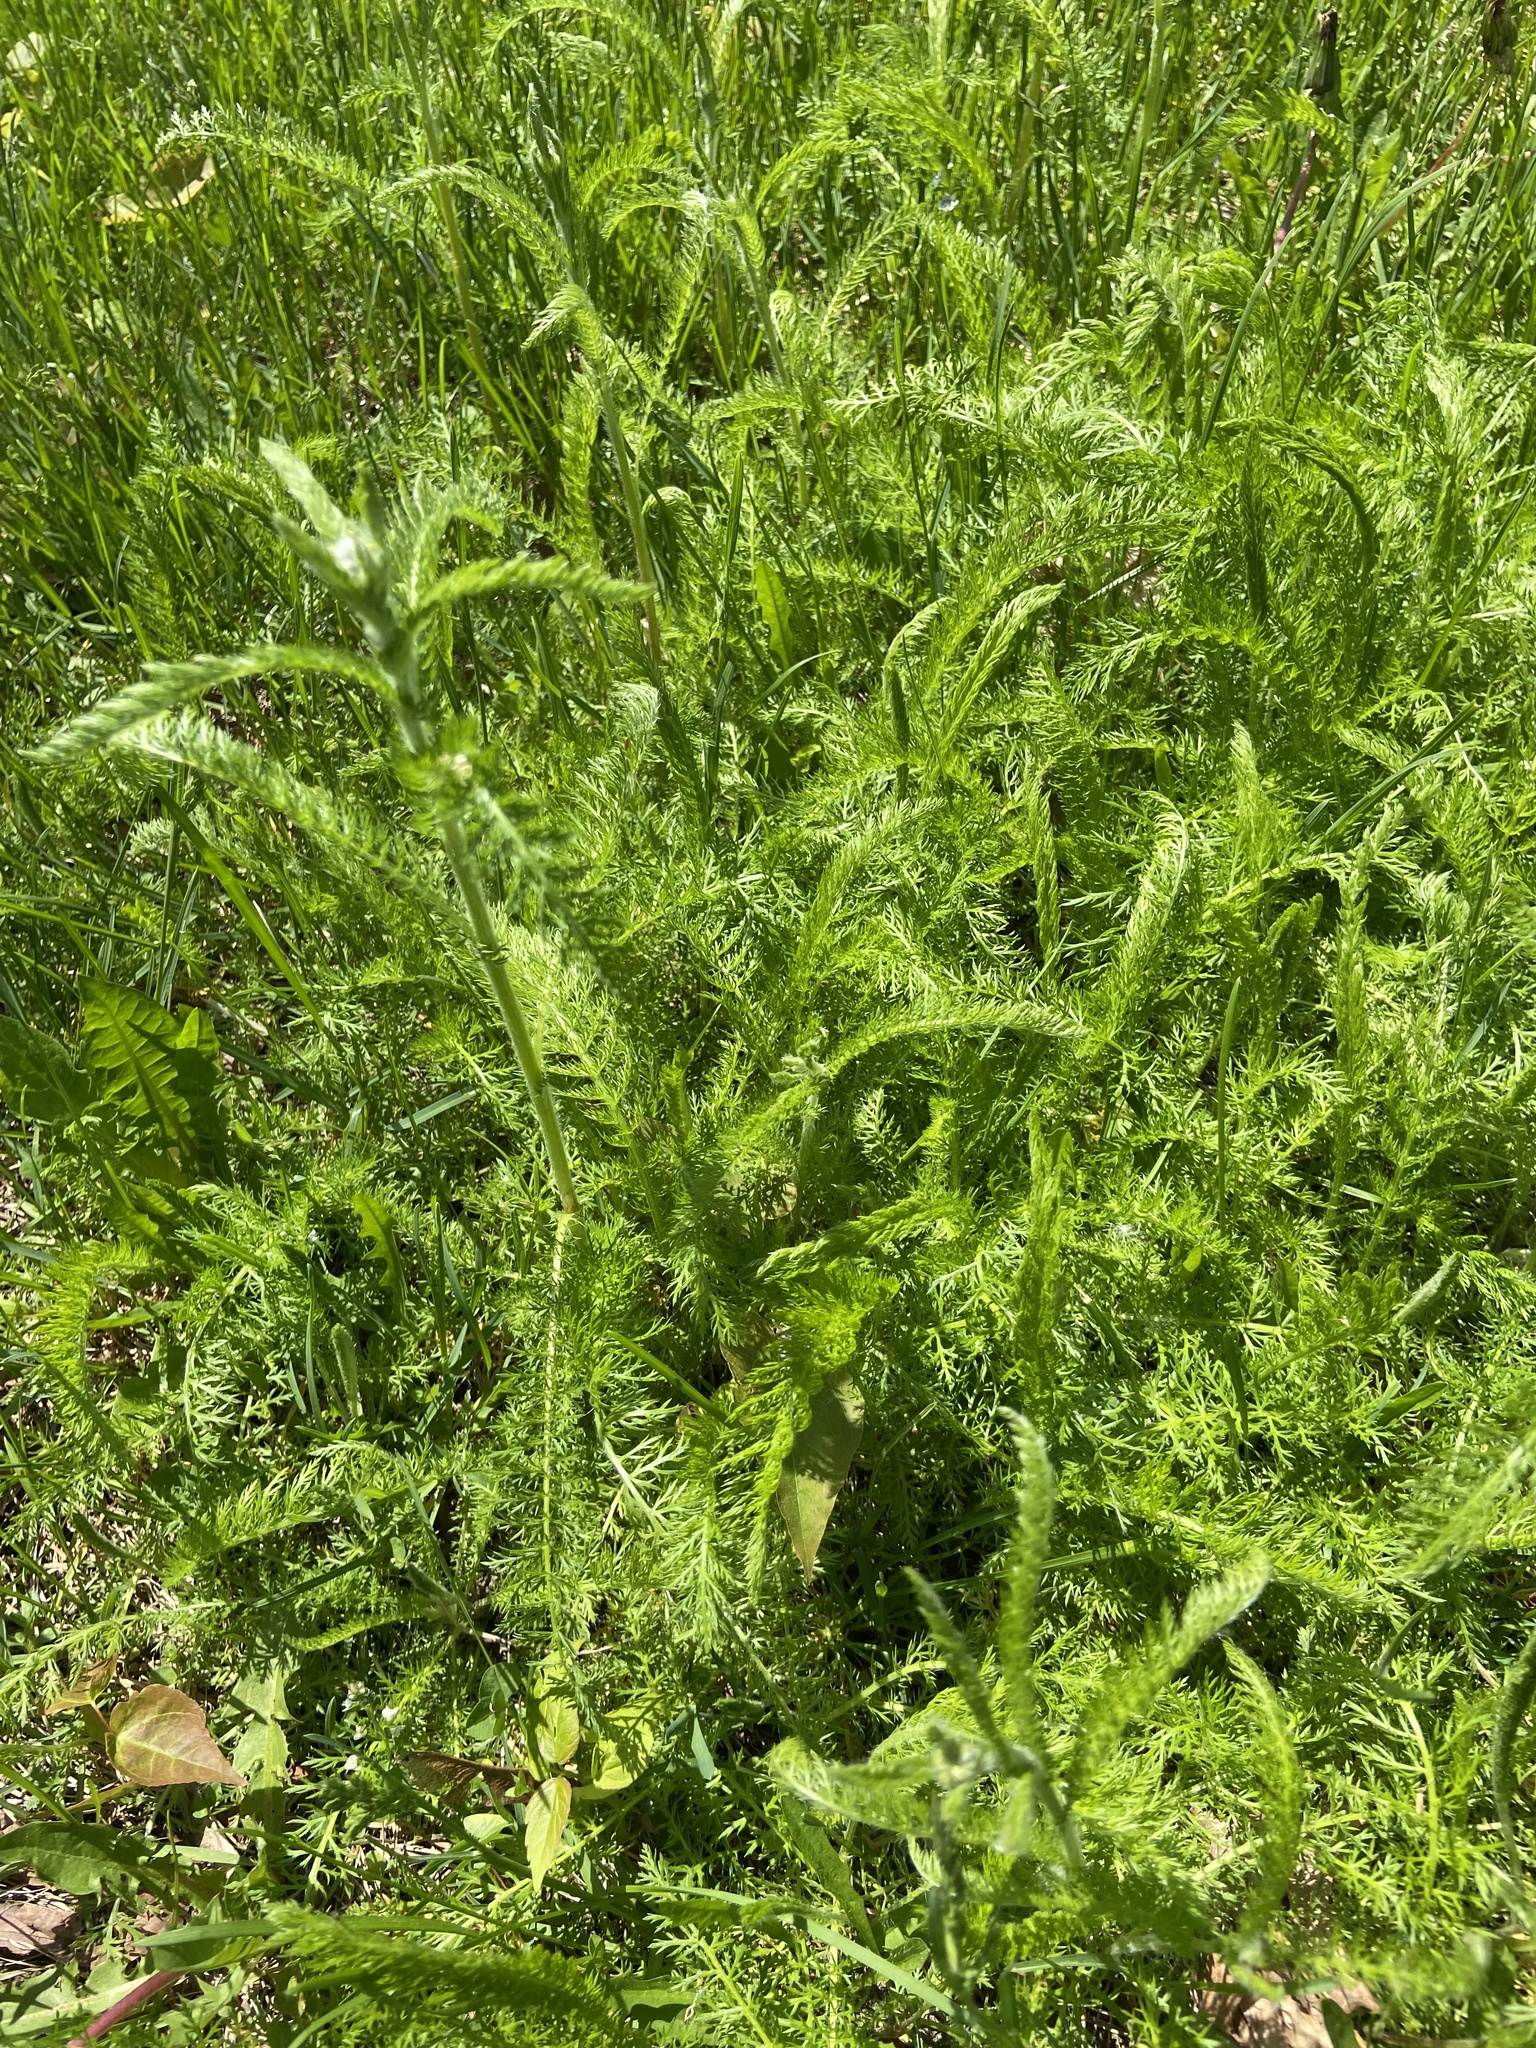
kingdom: Plantae
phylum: Tracheophyta
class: Magnoliopsida
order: Asterales
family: Asteraceae
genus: Achillea
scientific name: Achillea millefolium
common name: Yarrow
